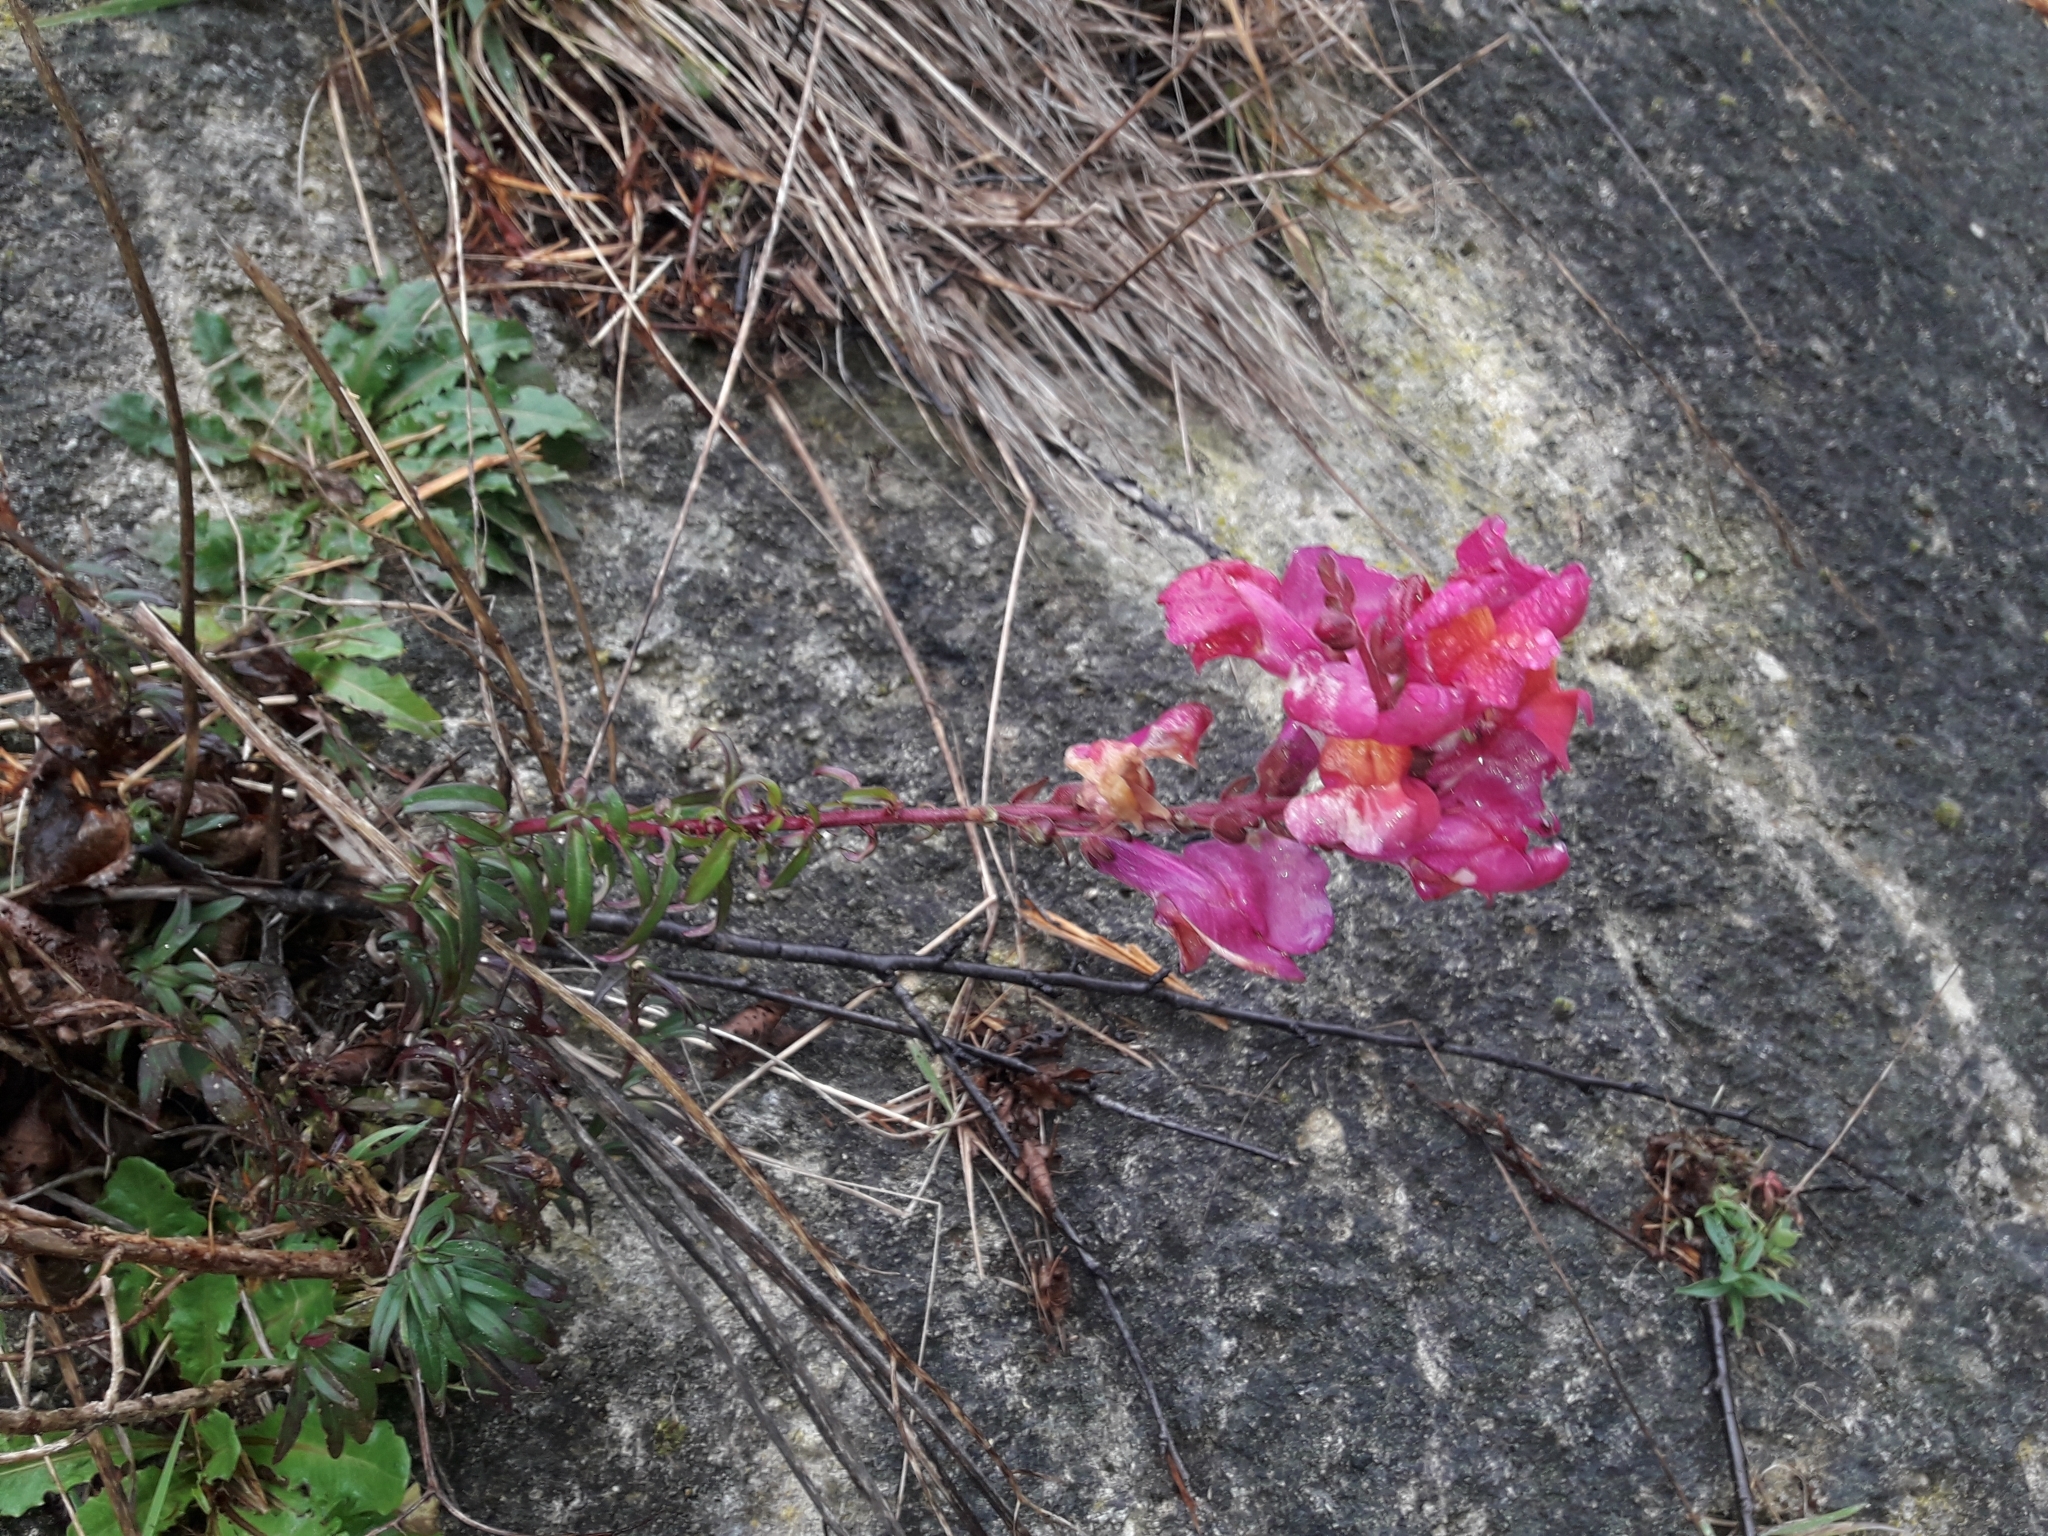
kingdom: Plantae
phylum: Tracheophyta
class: Magnoliopsida
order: Lamiales
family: Plantaginaceae
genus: Antirrhinum
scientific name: Antirrhinum majus
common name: Snapdragon
